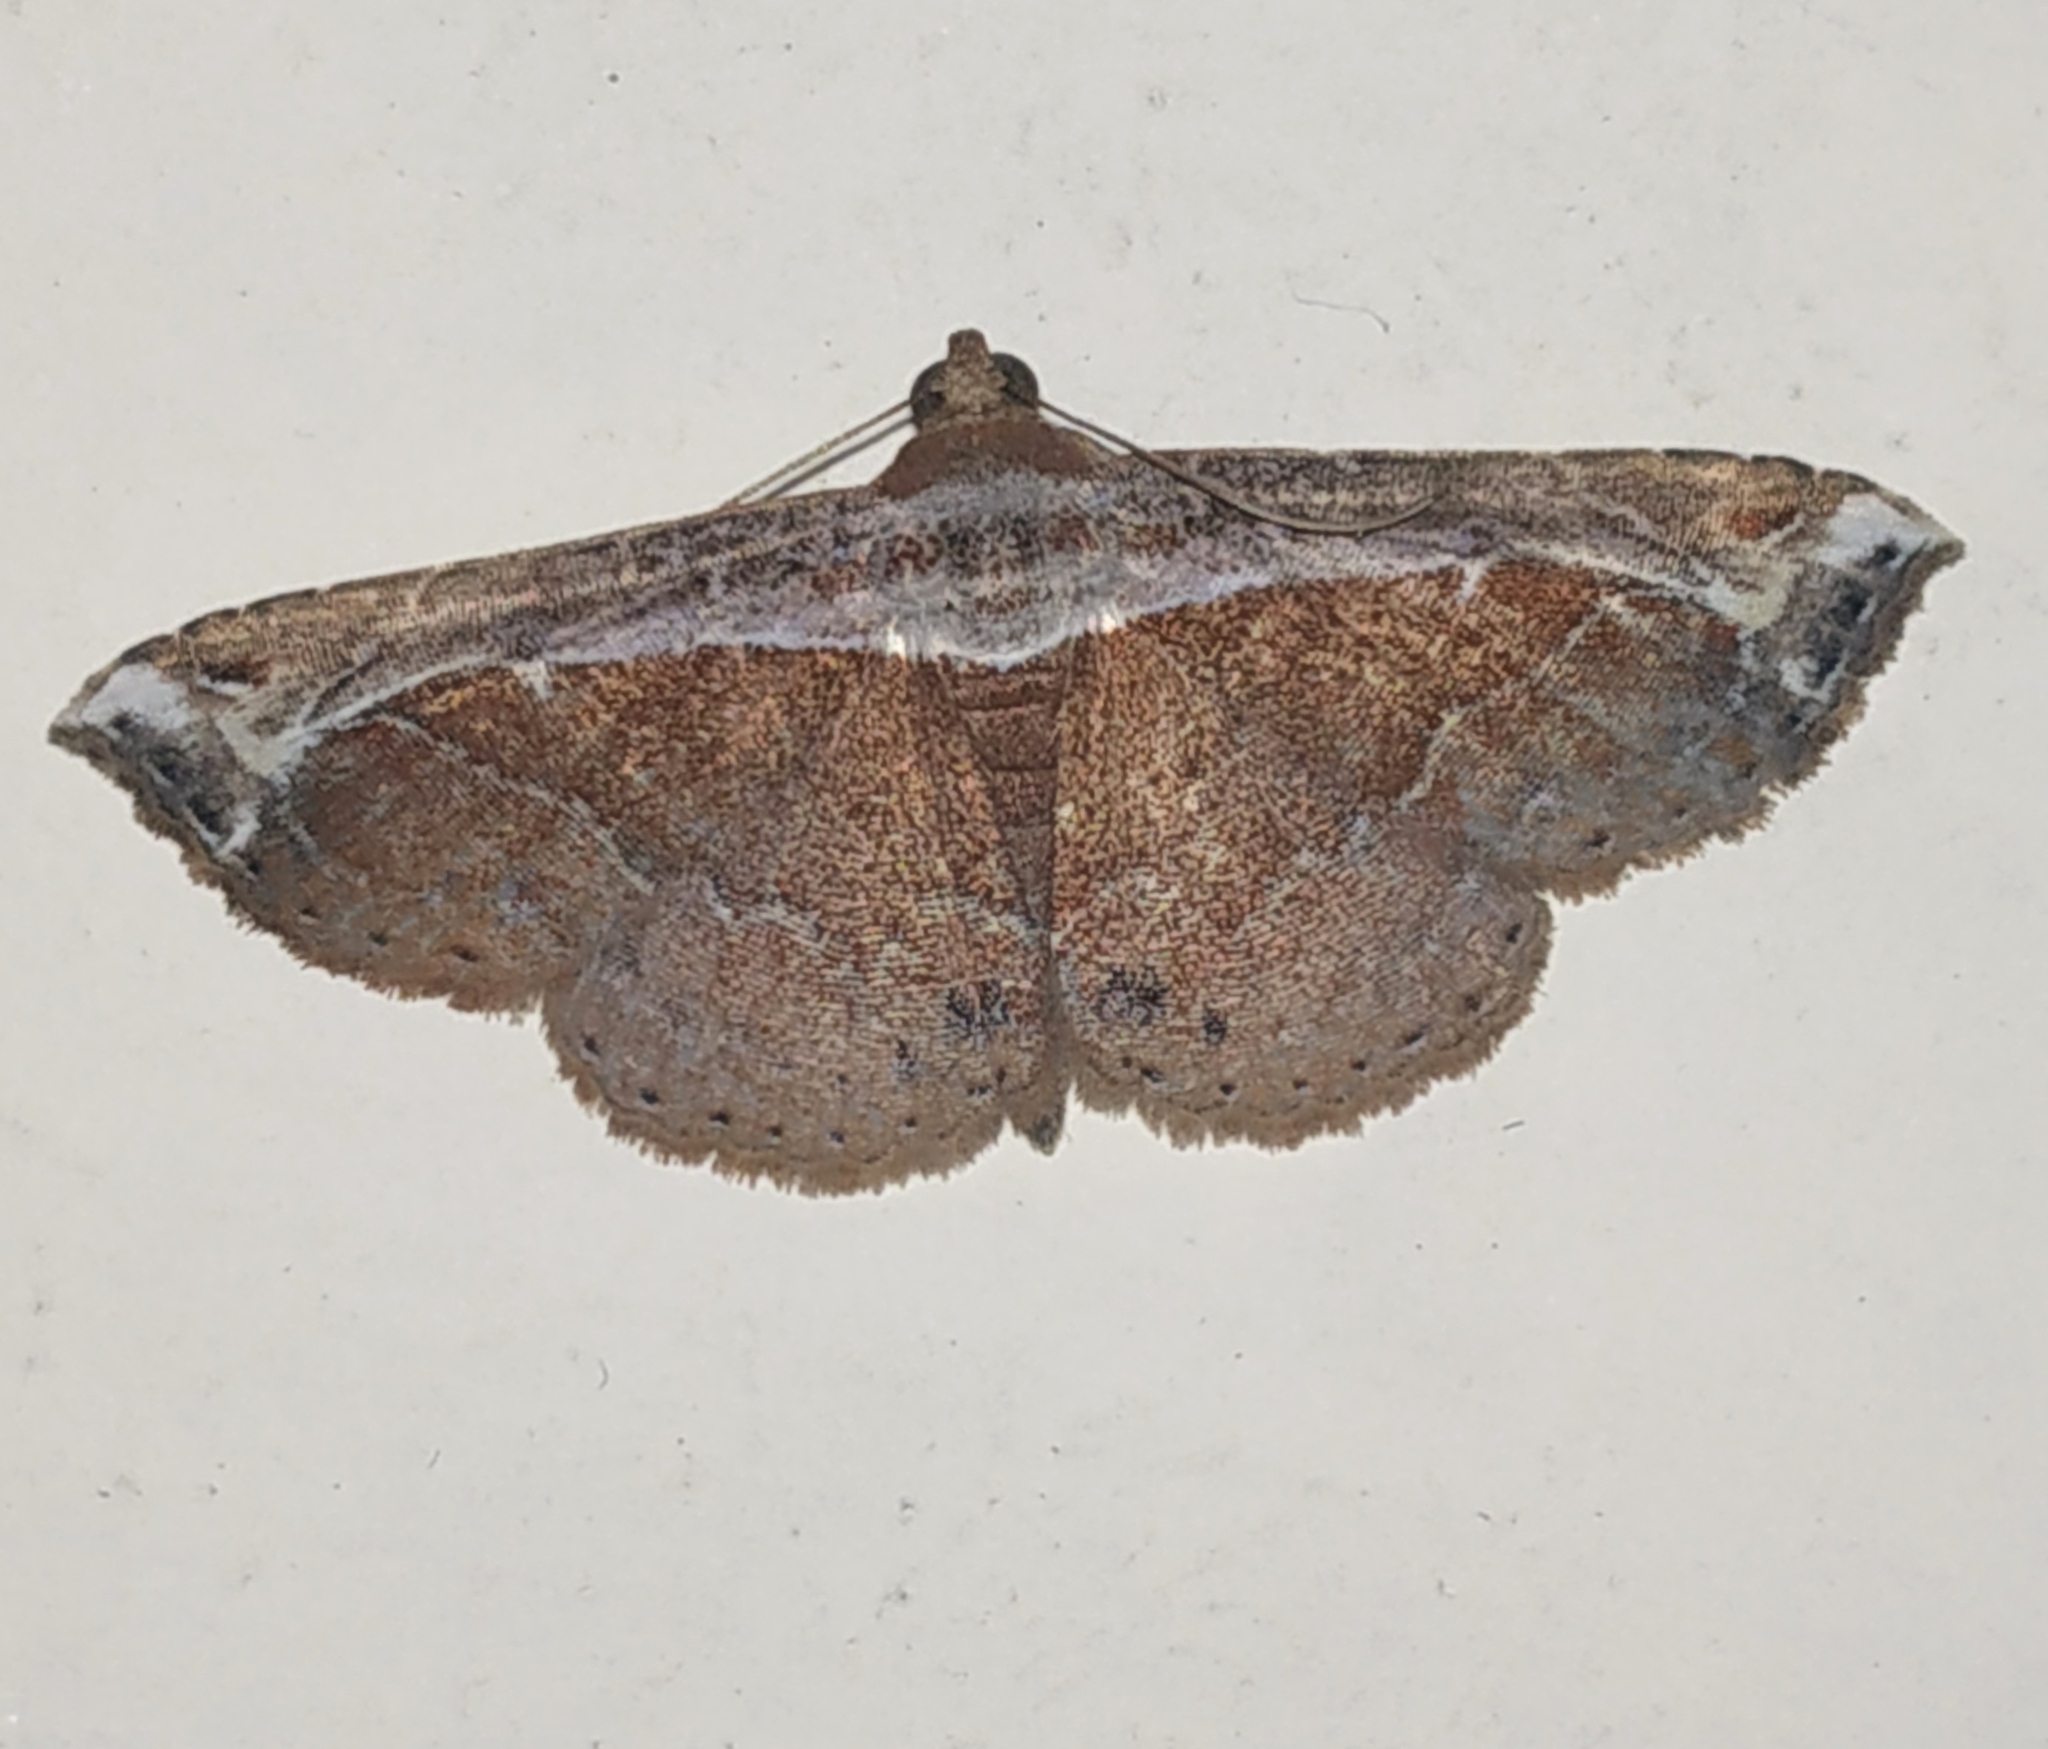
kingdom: Animalia
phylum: Arthropoda
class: Insecta
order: Lepidoptera
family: Erebidae
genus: Zurobata
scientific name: Zurobata vacillans
